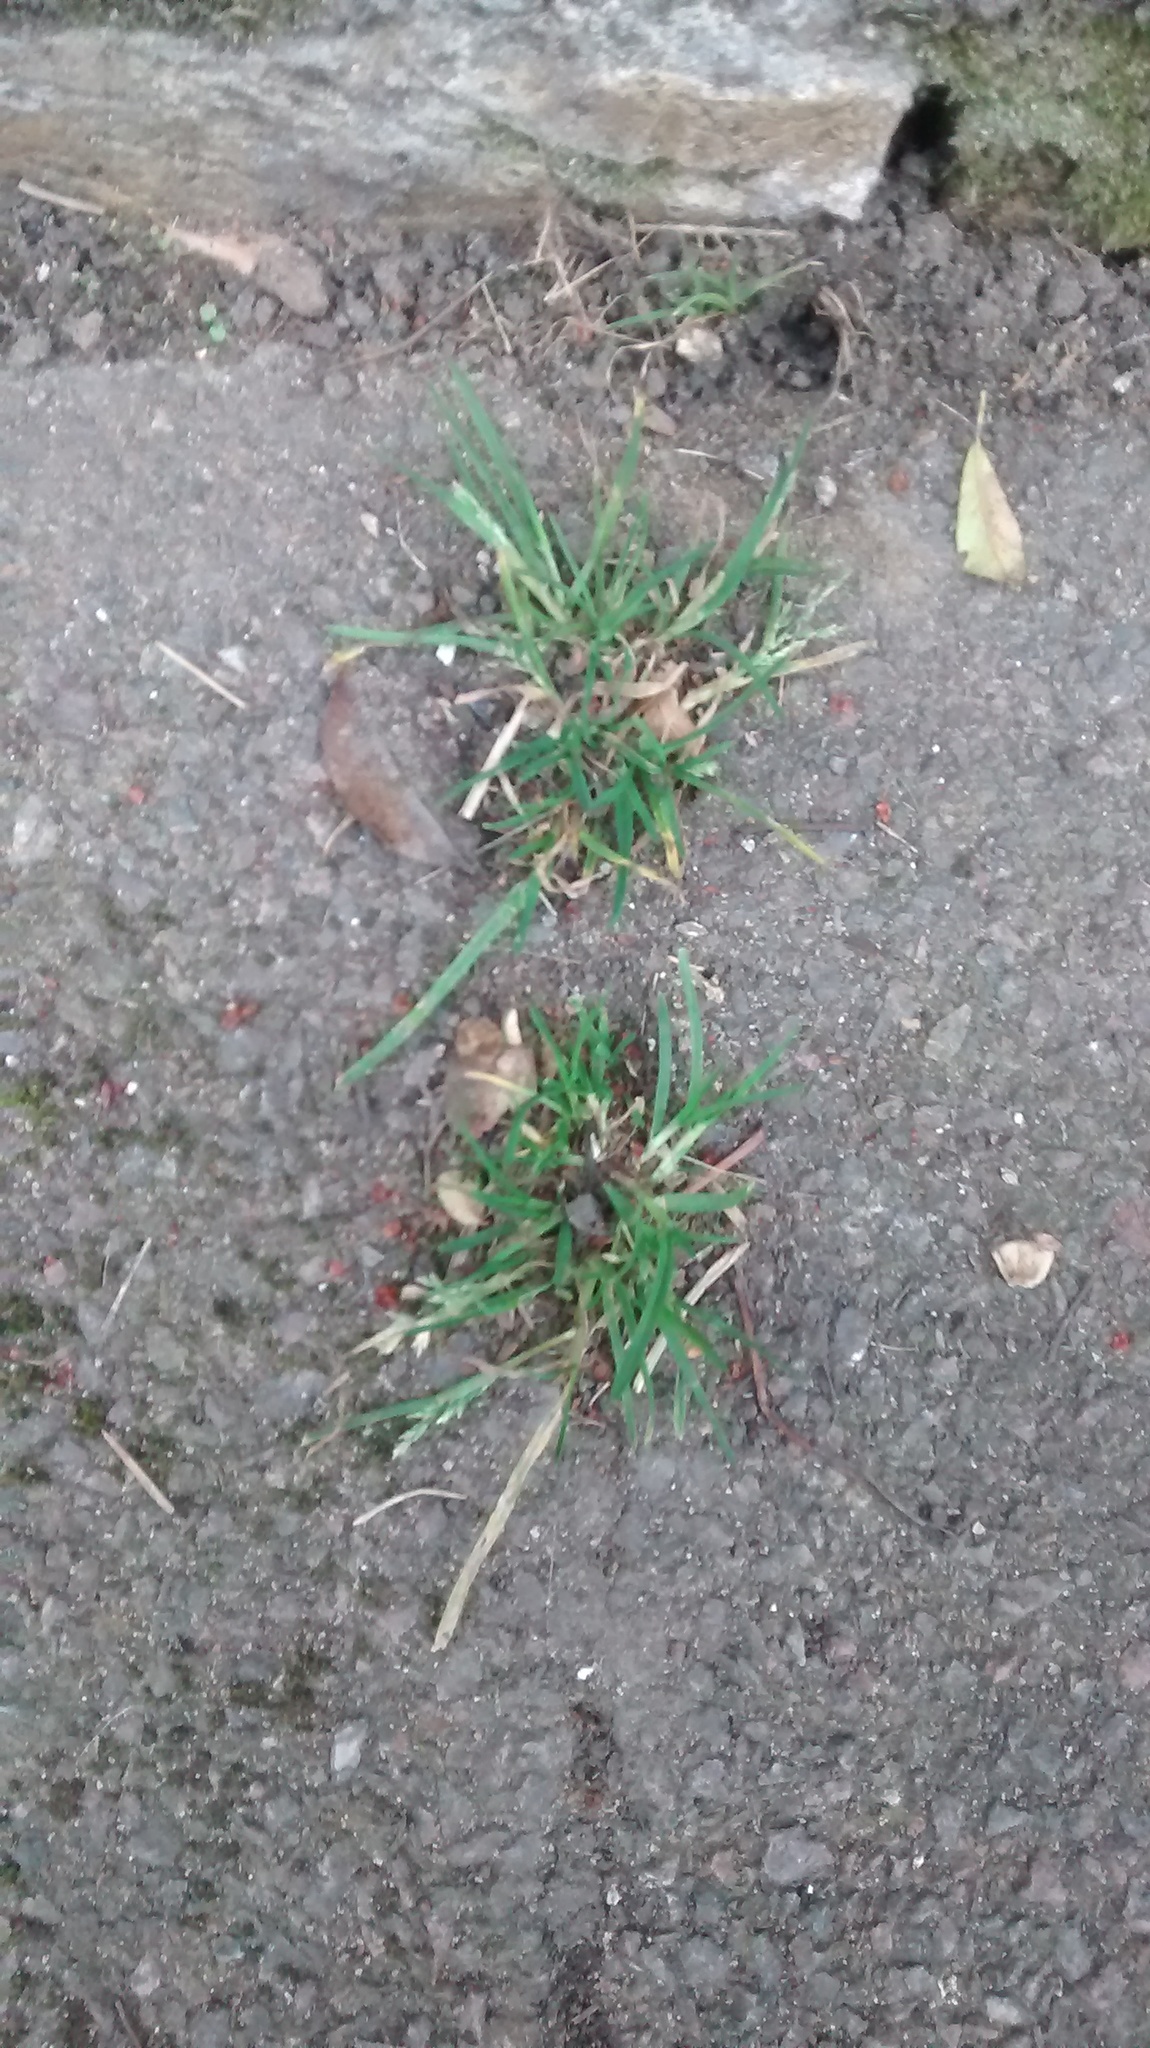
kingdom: Plantae
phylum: Tracheophyta
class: Liliopsida
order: Poales
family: Poaceae
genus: Poa
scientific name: Poa annua
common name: Annual bluegrass
